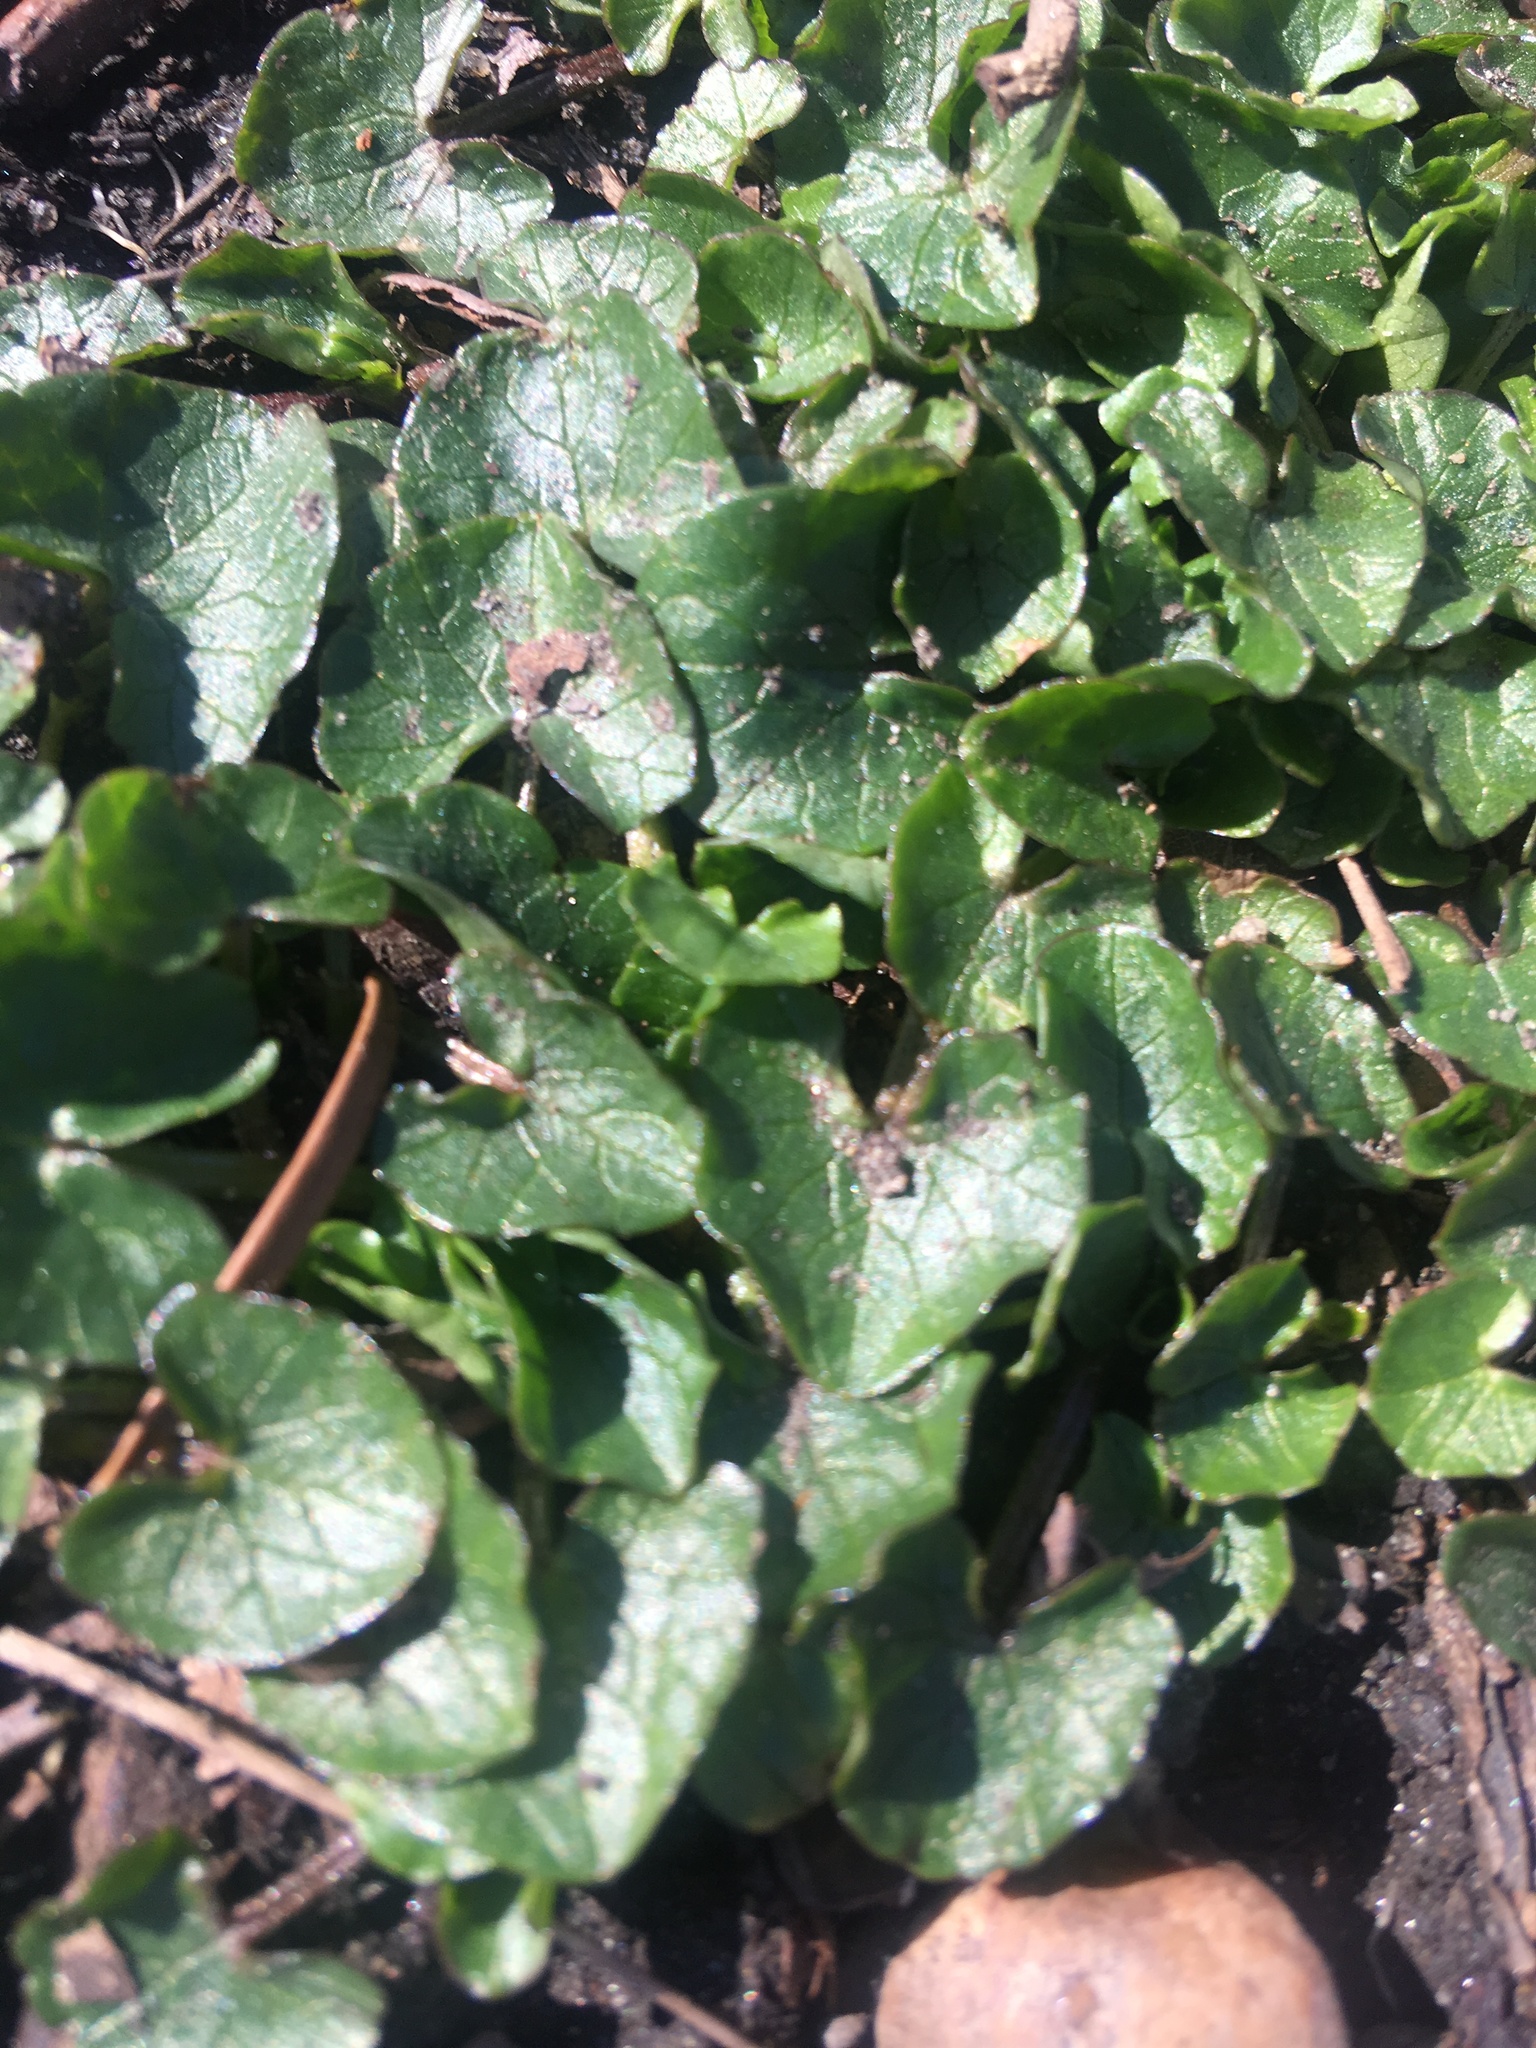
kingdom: Plantae
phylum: Tracheophyta
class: Magnoliopsida
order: Ranunculales
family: Ranunculaceae
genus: Ficaria
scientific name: Ficaria verna
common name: Lesser celandine
